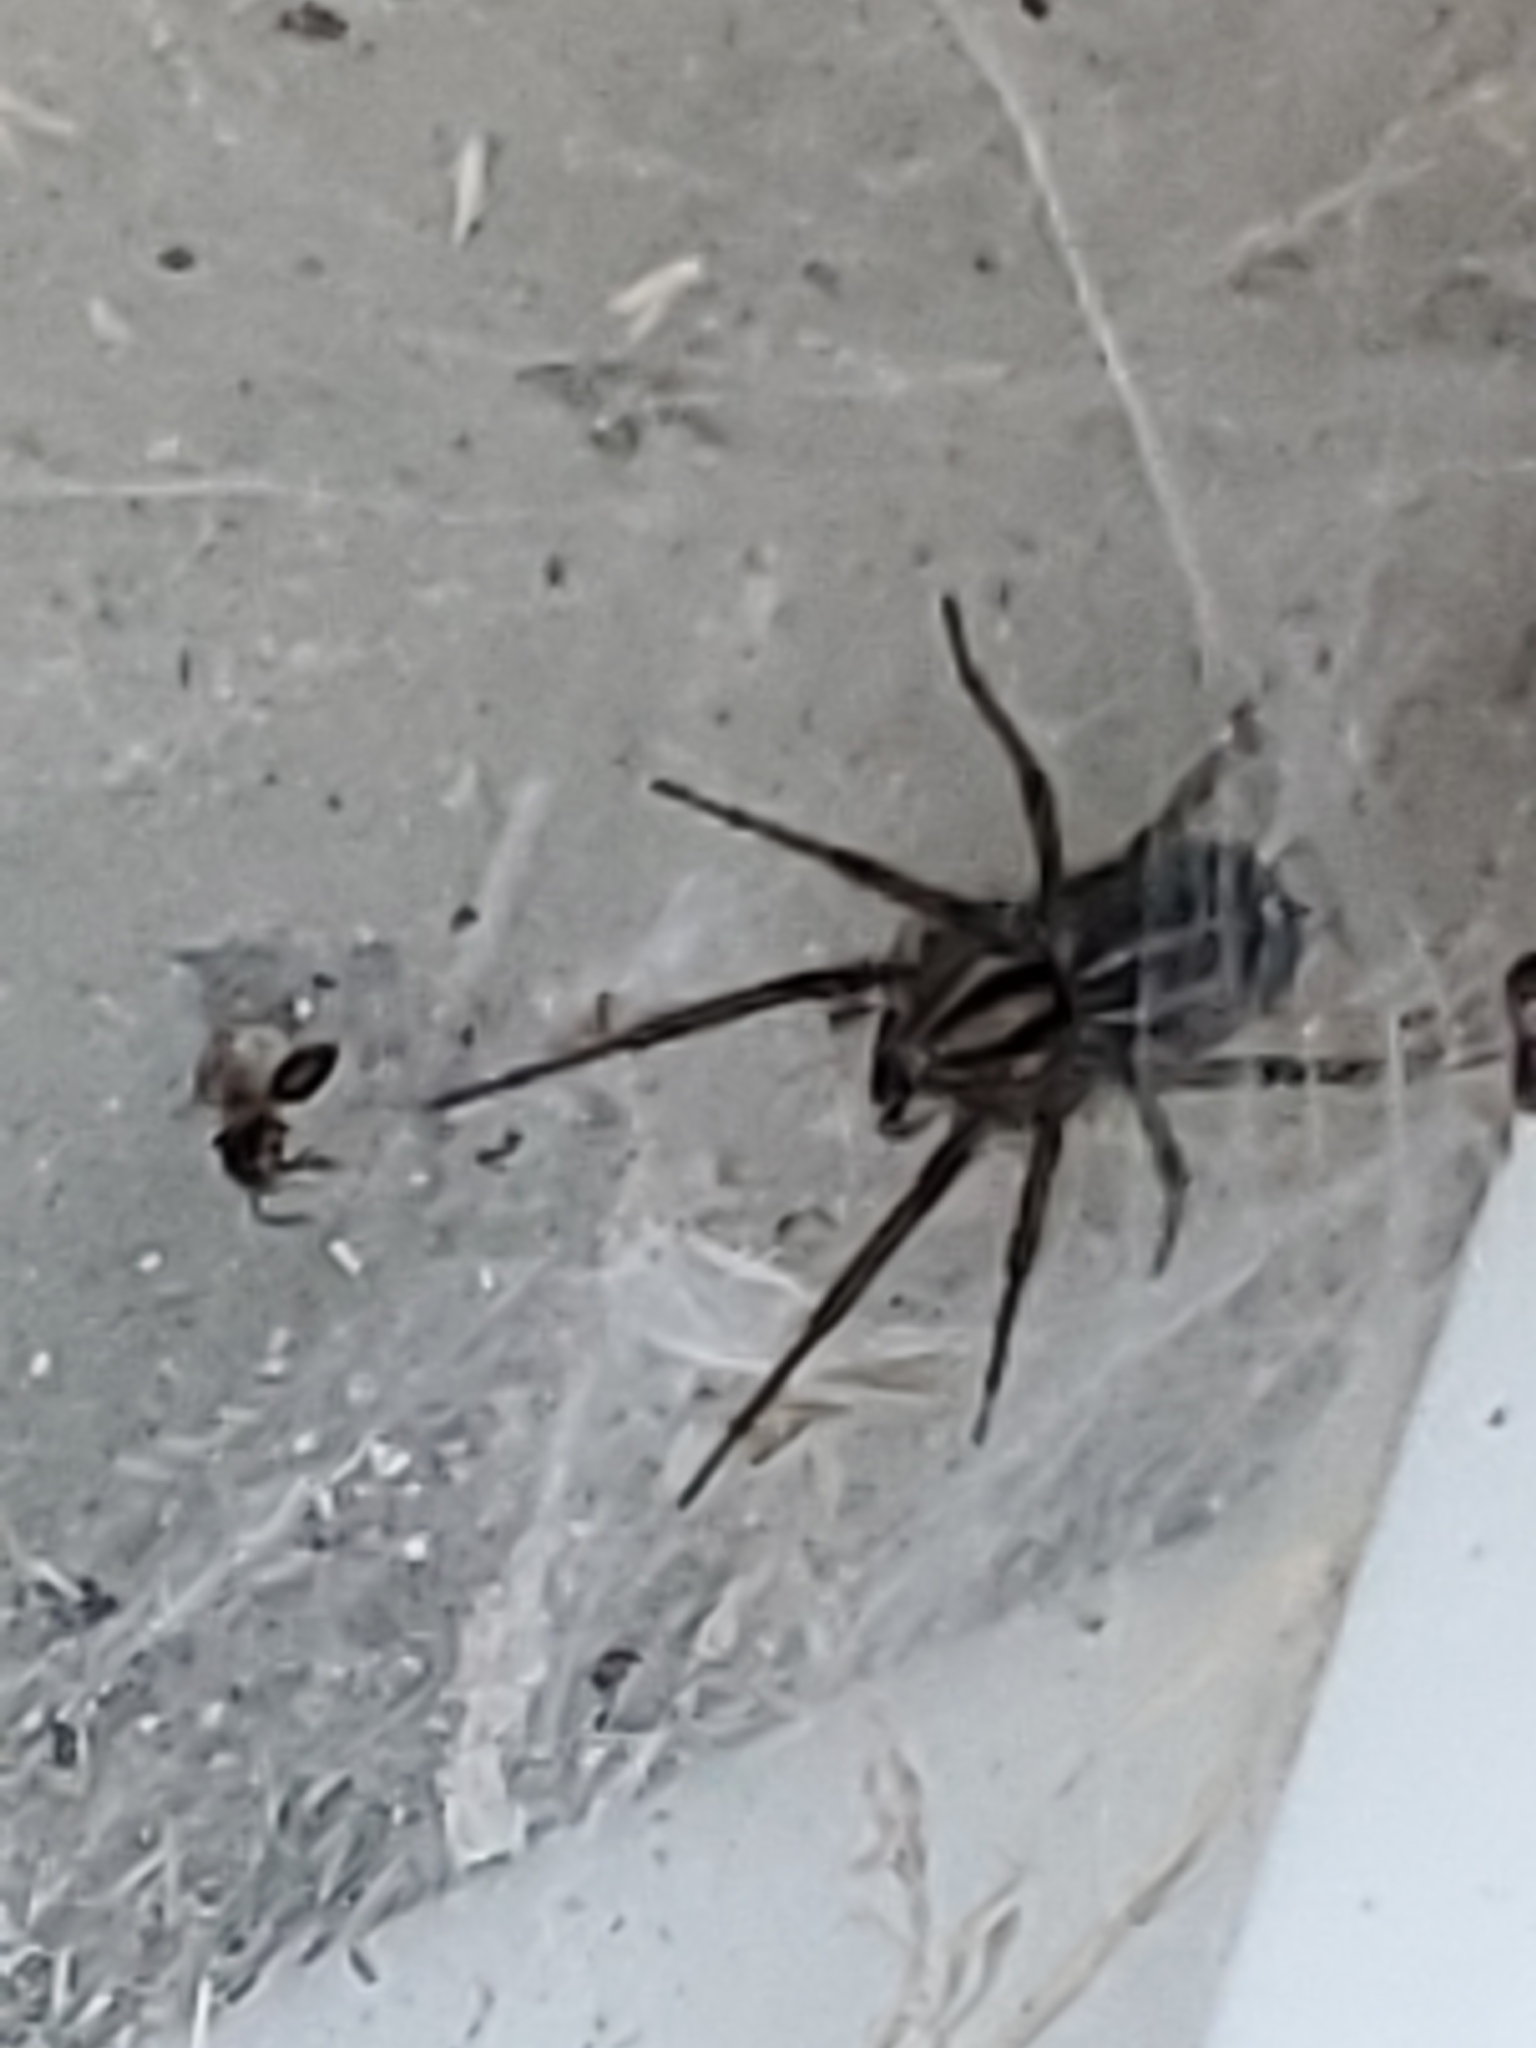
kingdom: Animalia
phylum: Arthropoda
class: Arachnida
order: Araneae
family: Agelenidae
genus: Agelenopsis
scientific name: Agelenopsis
